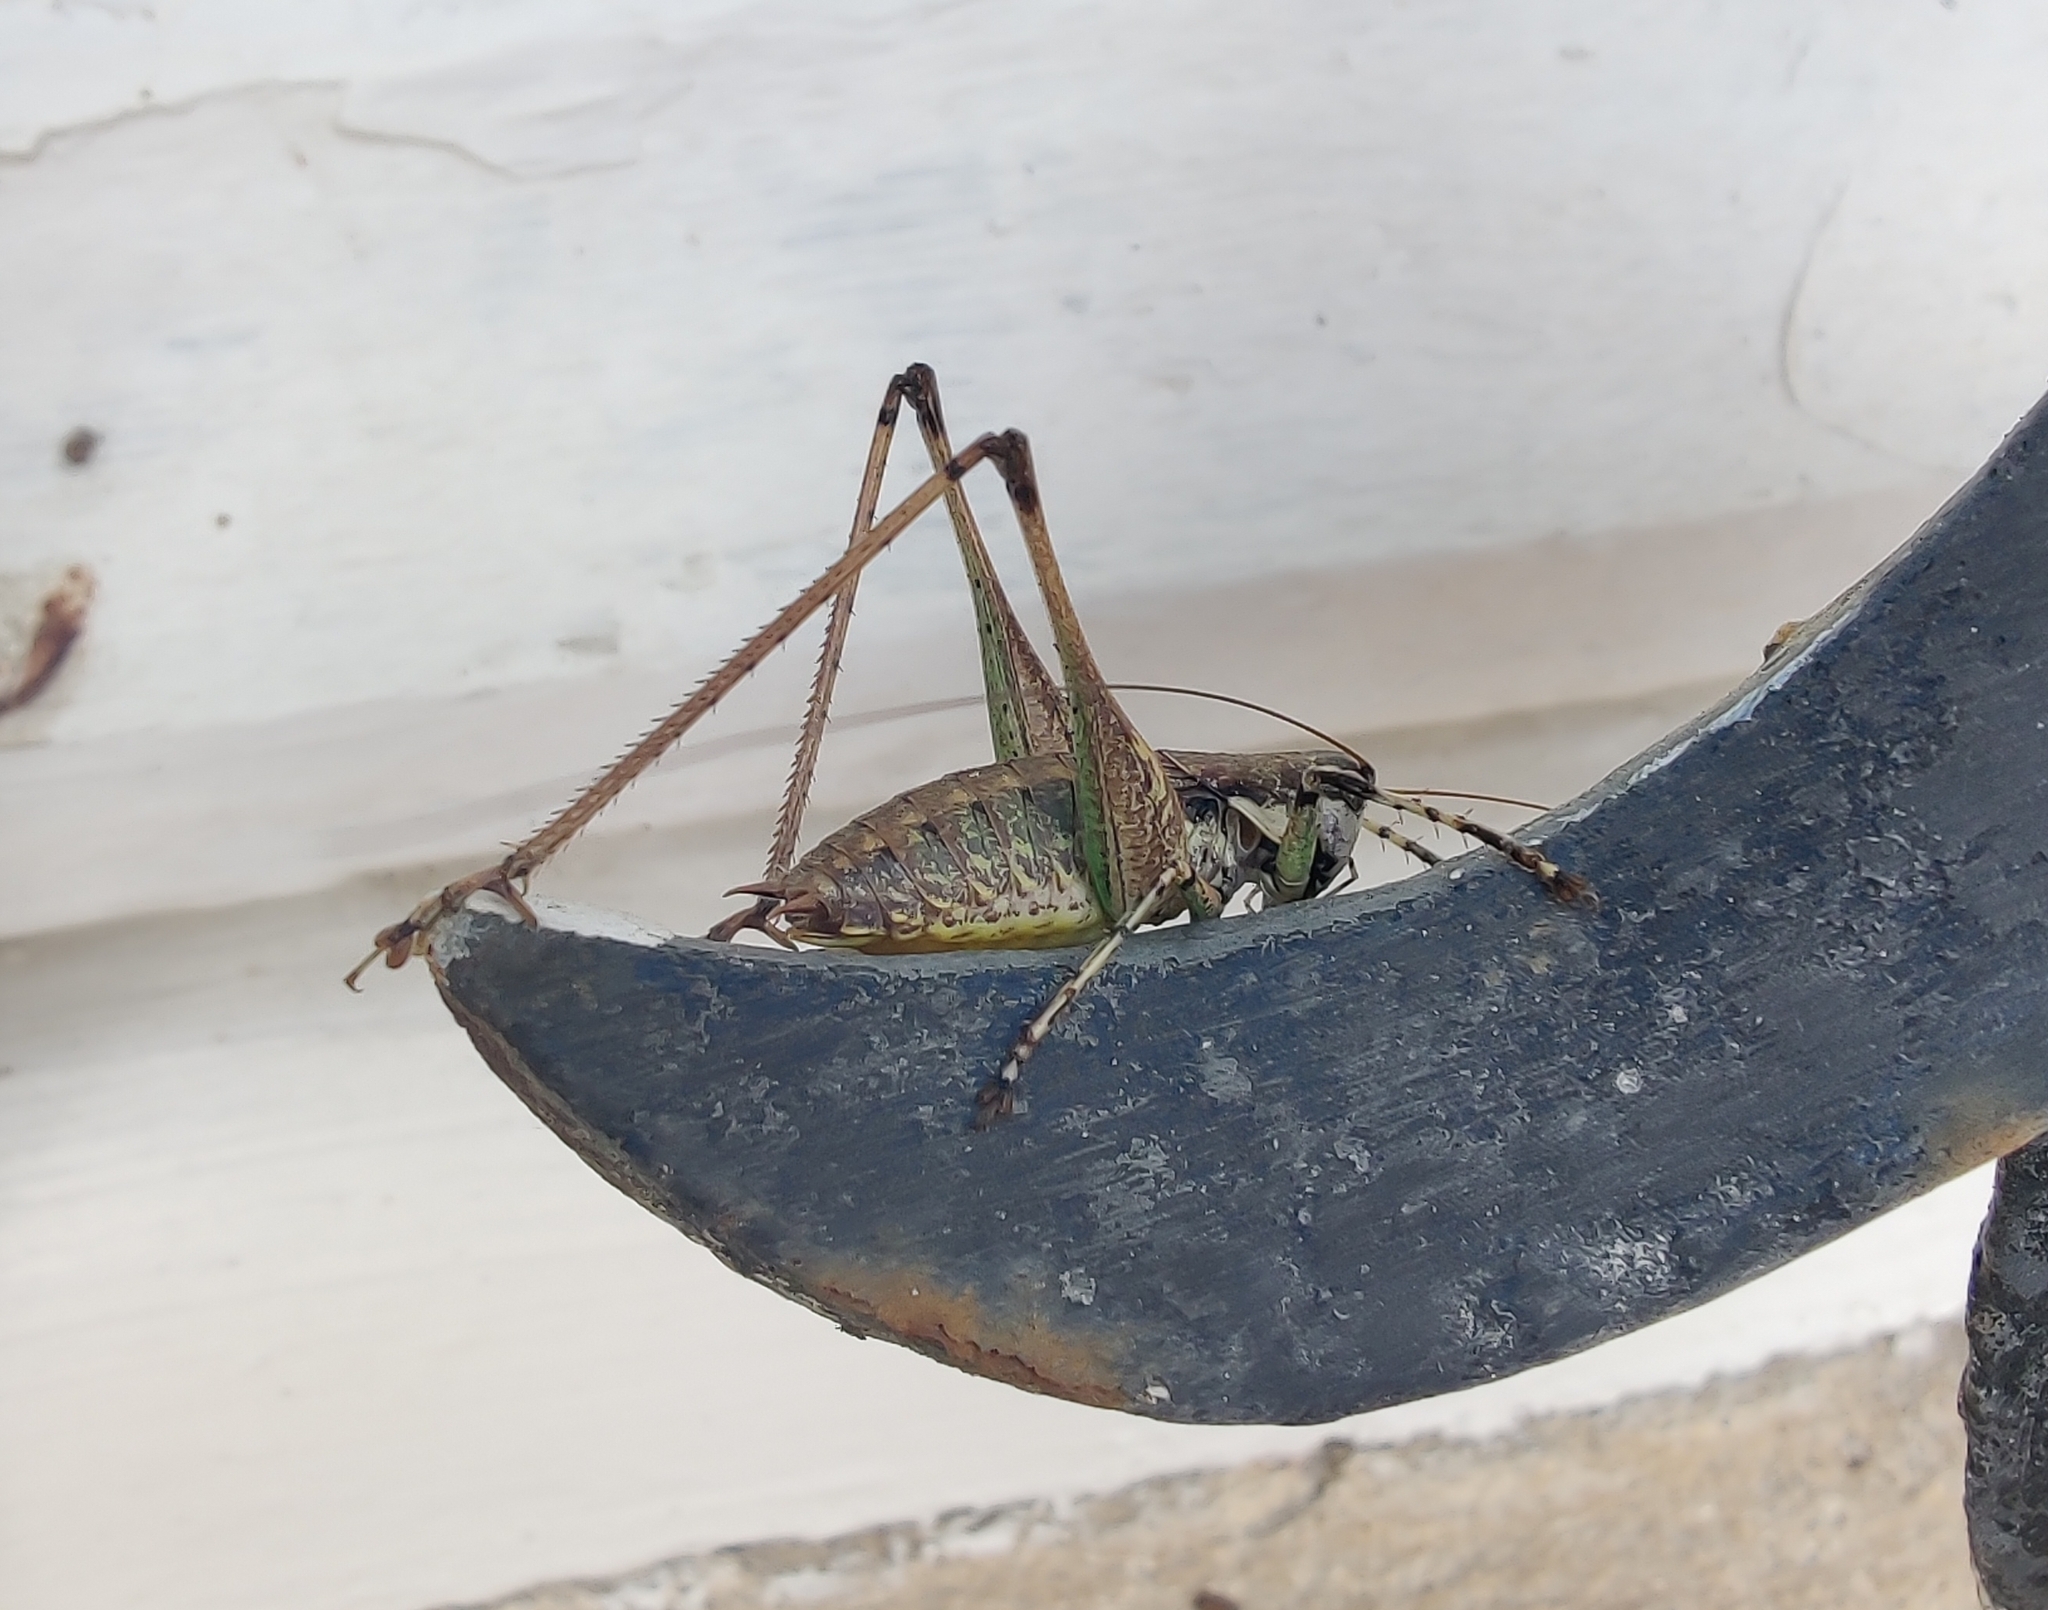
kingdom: Animalia
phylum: Arthropoda
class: Insecta
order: Orthoptera
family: Tettigoniidae
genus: Rhacocleis
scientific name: Rhacocleis annulata
